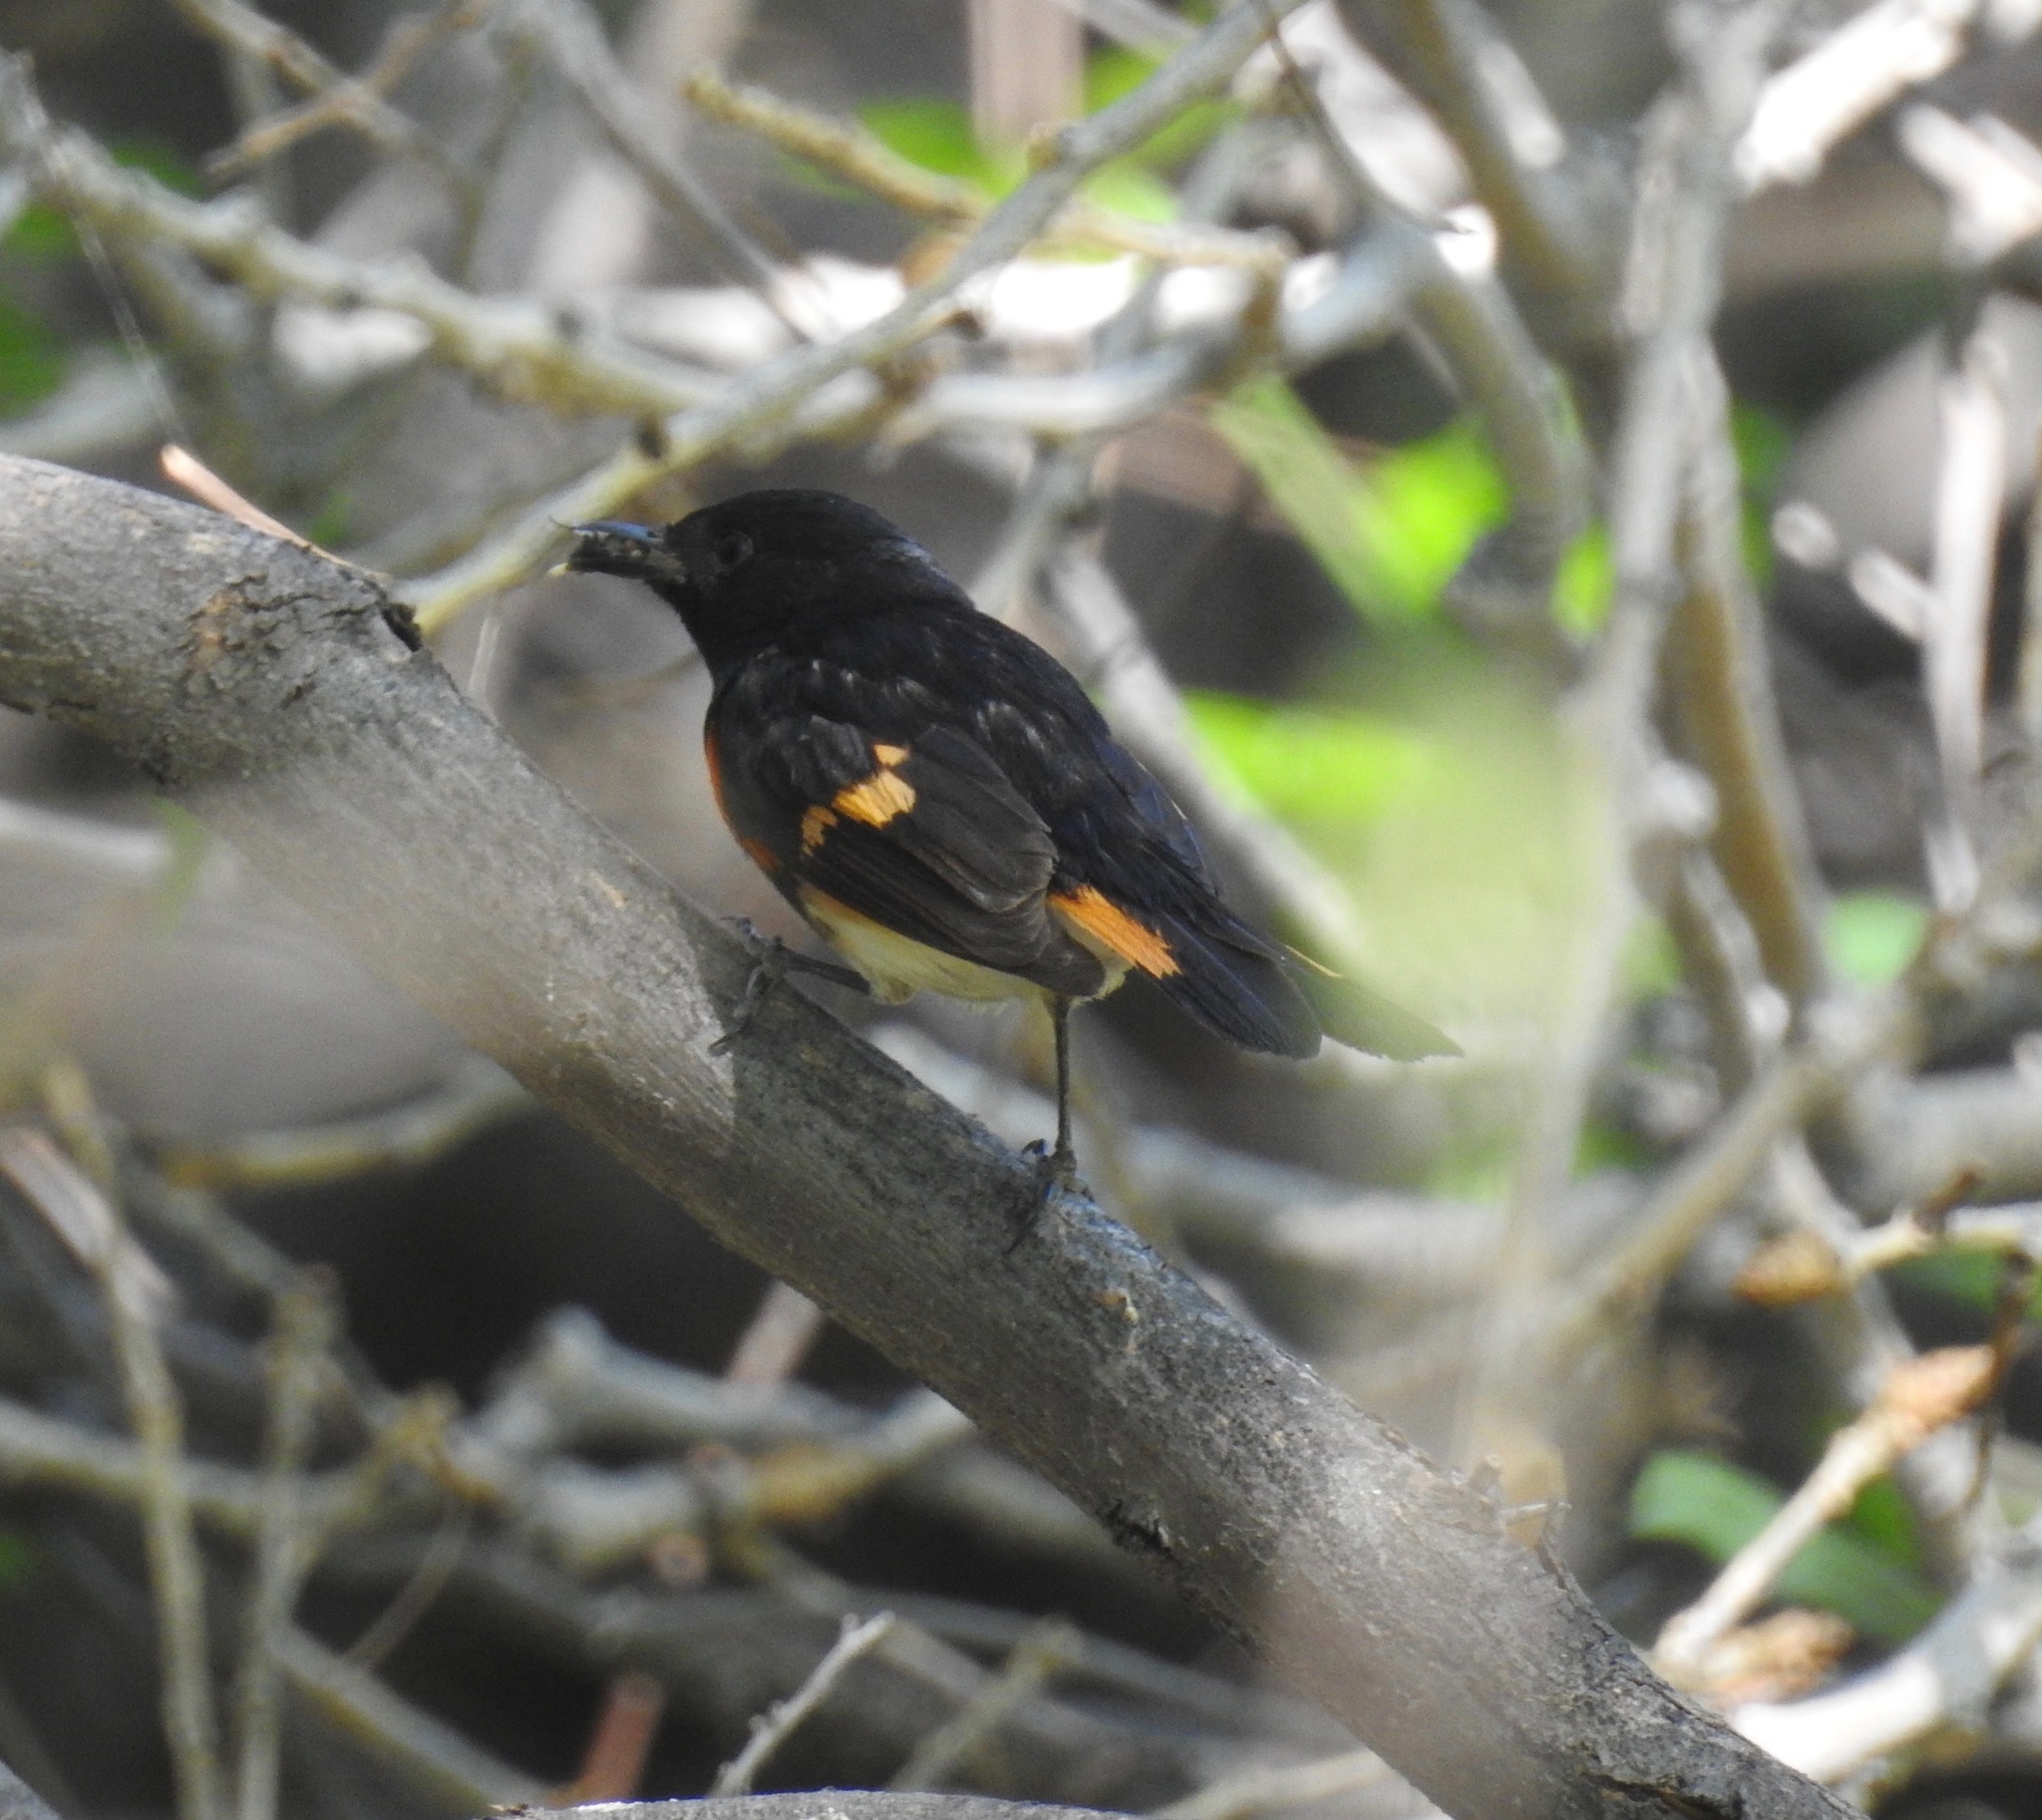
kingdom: Animalia
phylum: Chordata
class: Aves
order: Passeriformes
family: Parulidae
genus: Setophaga
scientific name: Setophaga ruticilla
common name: American redstart
